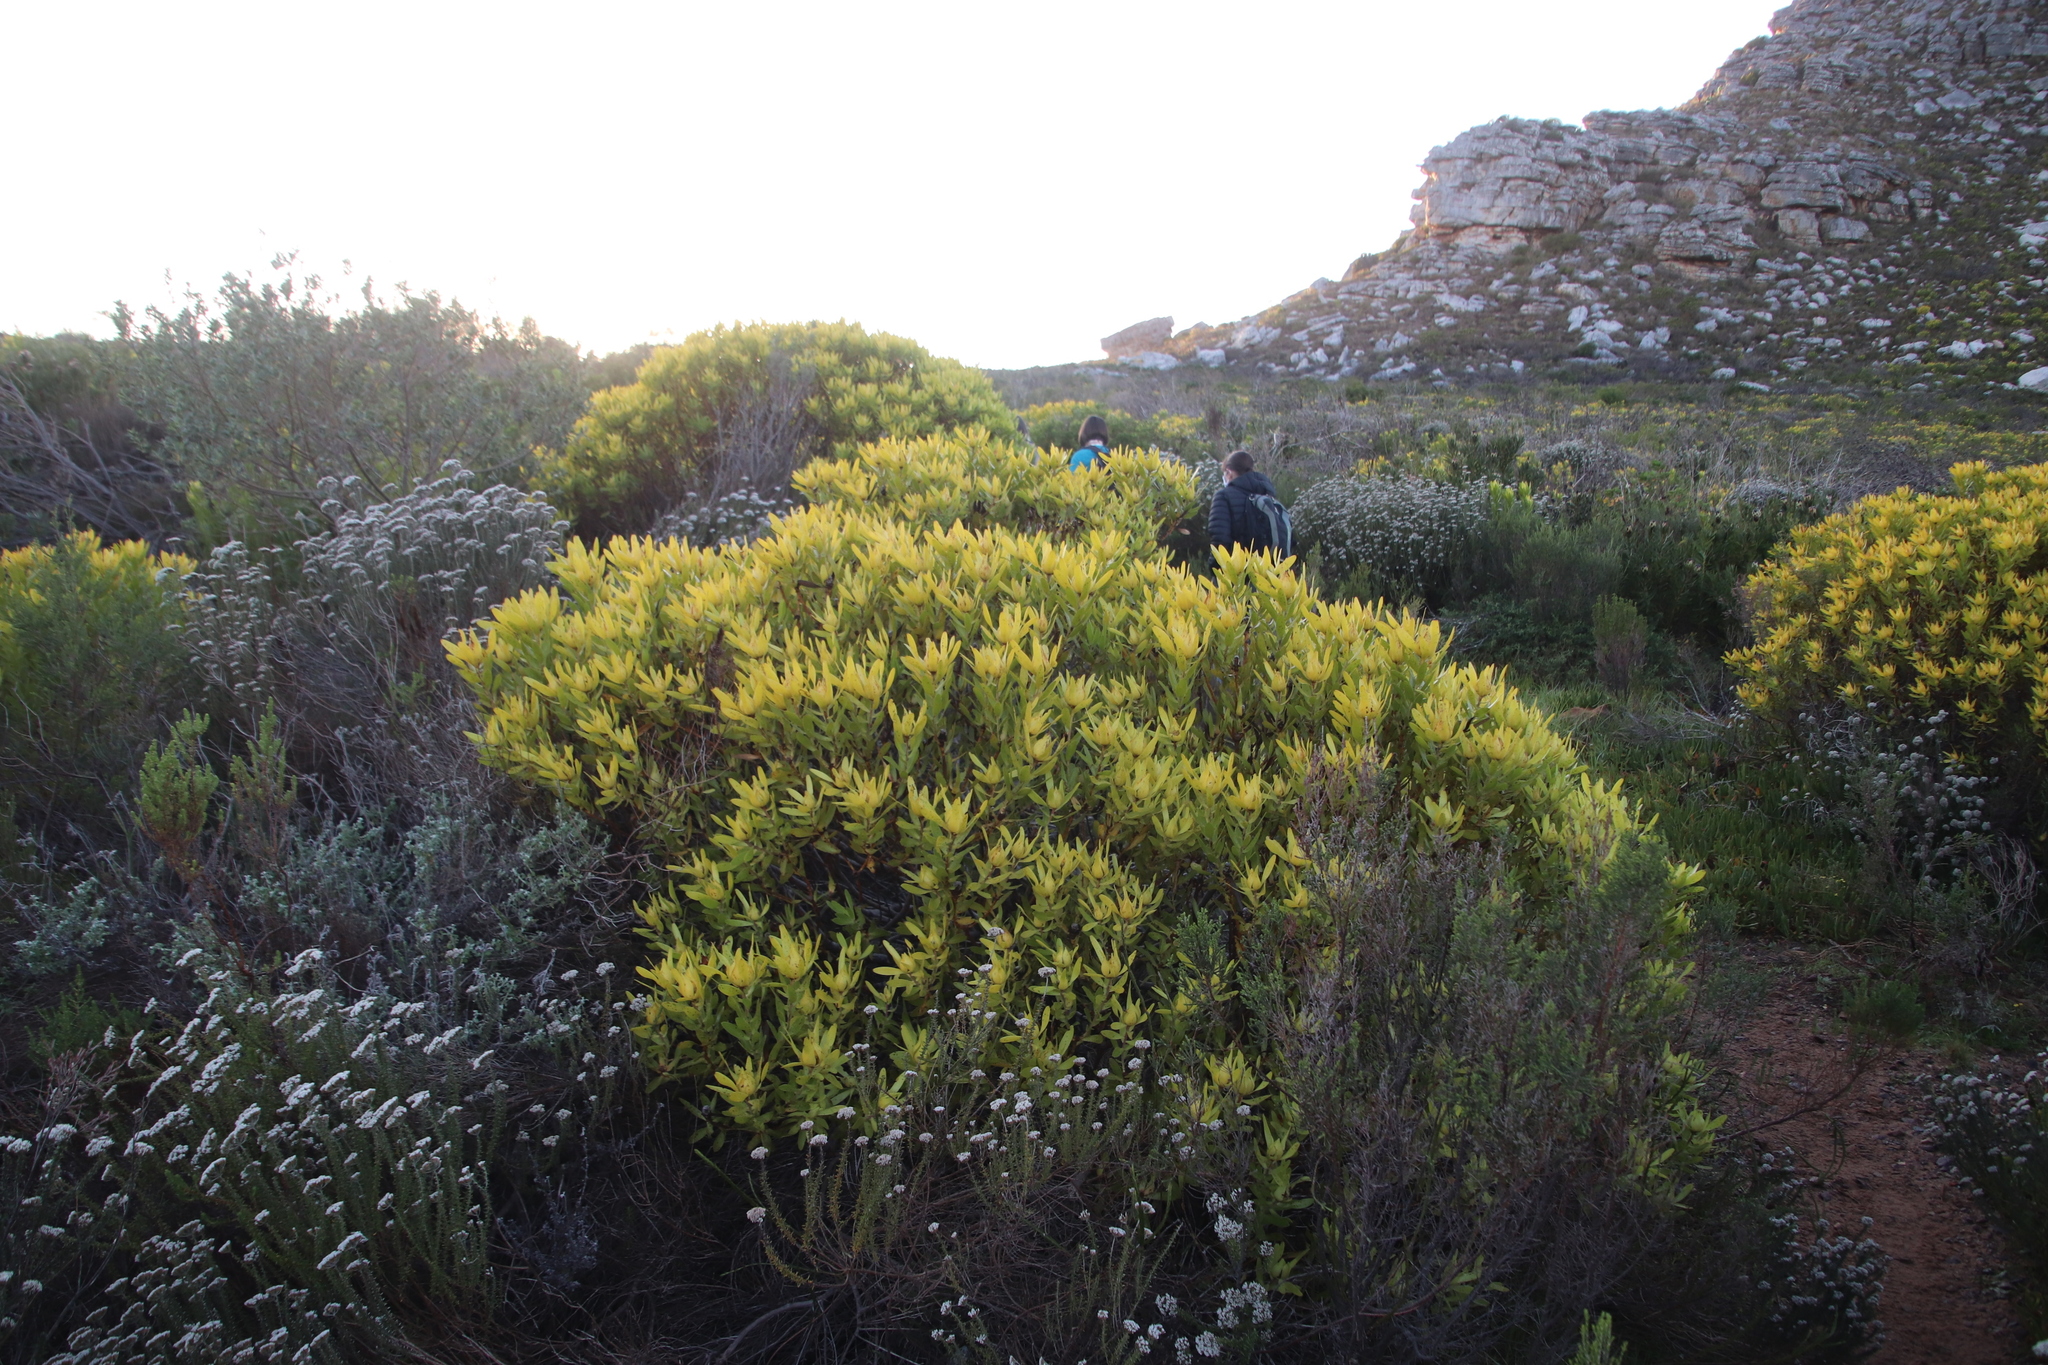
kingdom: Plantae
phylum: Tracheophyta
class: Magnoliopsida
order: Proteales
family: Proteaceae
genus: Leucadendron
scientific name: Leucadendron laureolum
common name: Golden sunshinebush
